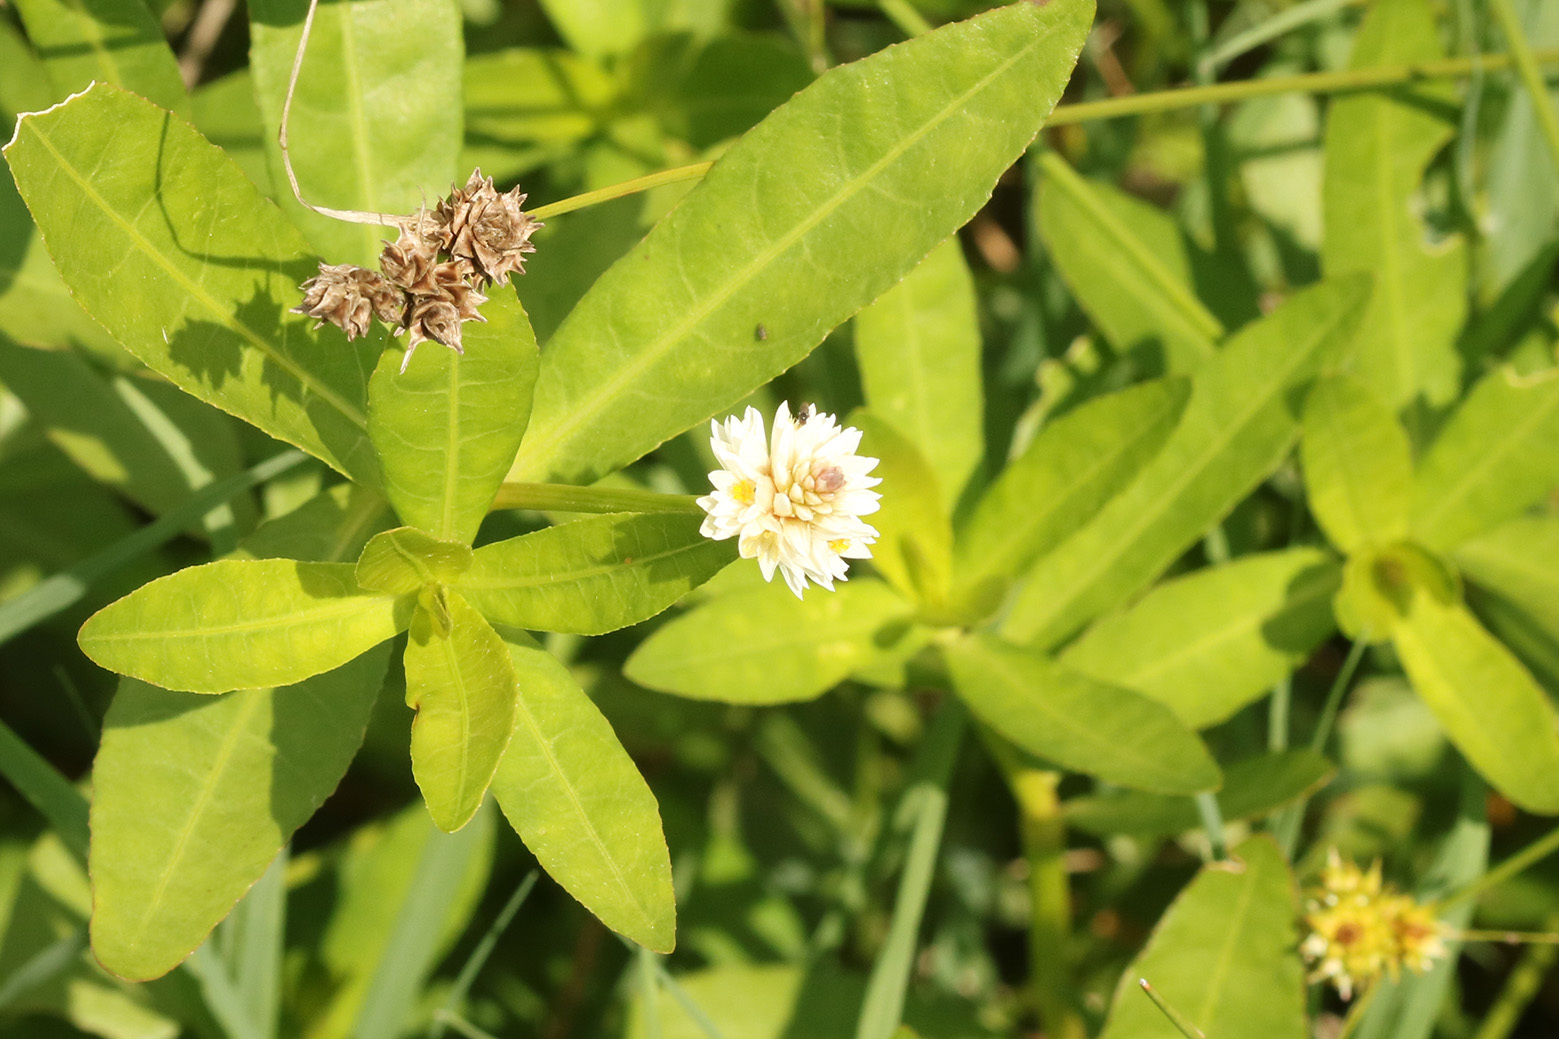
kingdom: Plantae
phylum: Tracheophyta
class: Magnoliopsida
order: Caryophyllales
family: Amaranthaceae
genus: Alternanthera
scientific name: Alternanthera philoxeroides
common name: Alligatorweed
